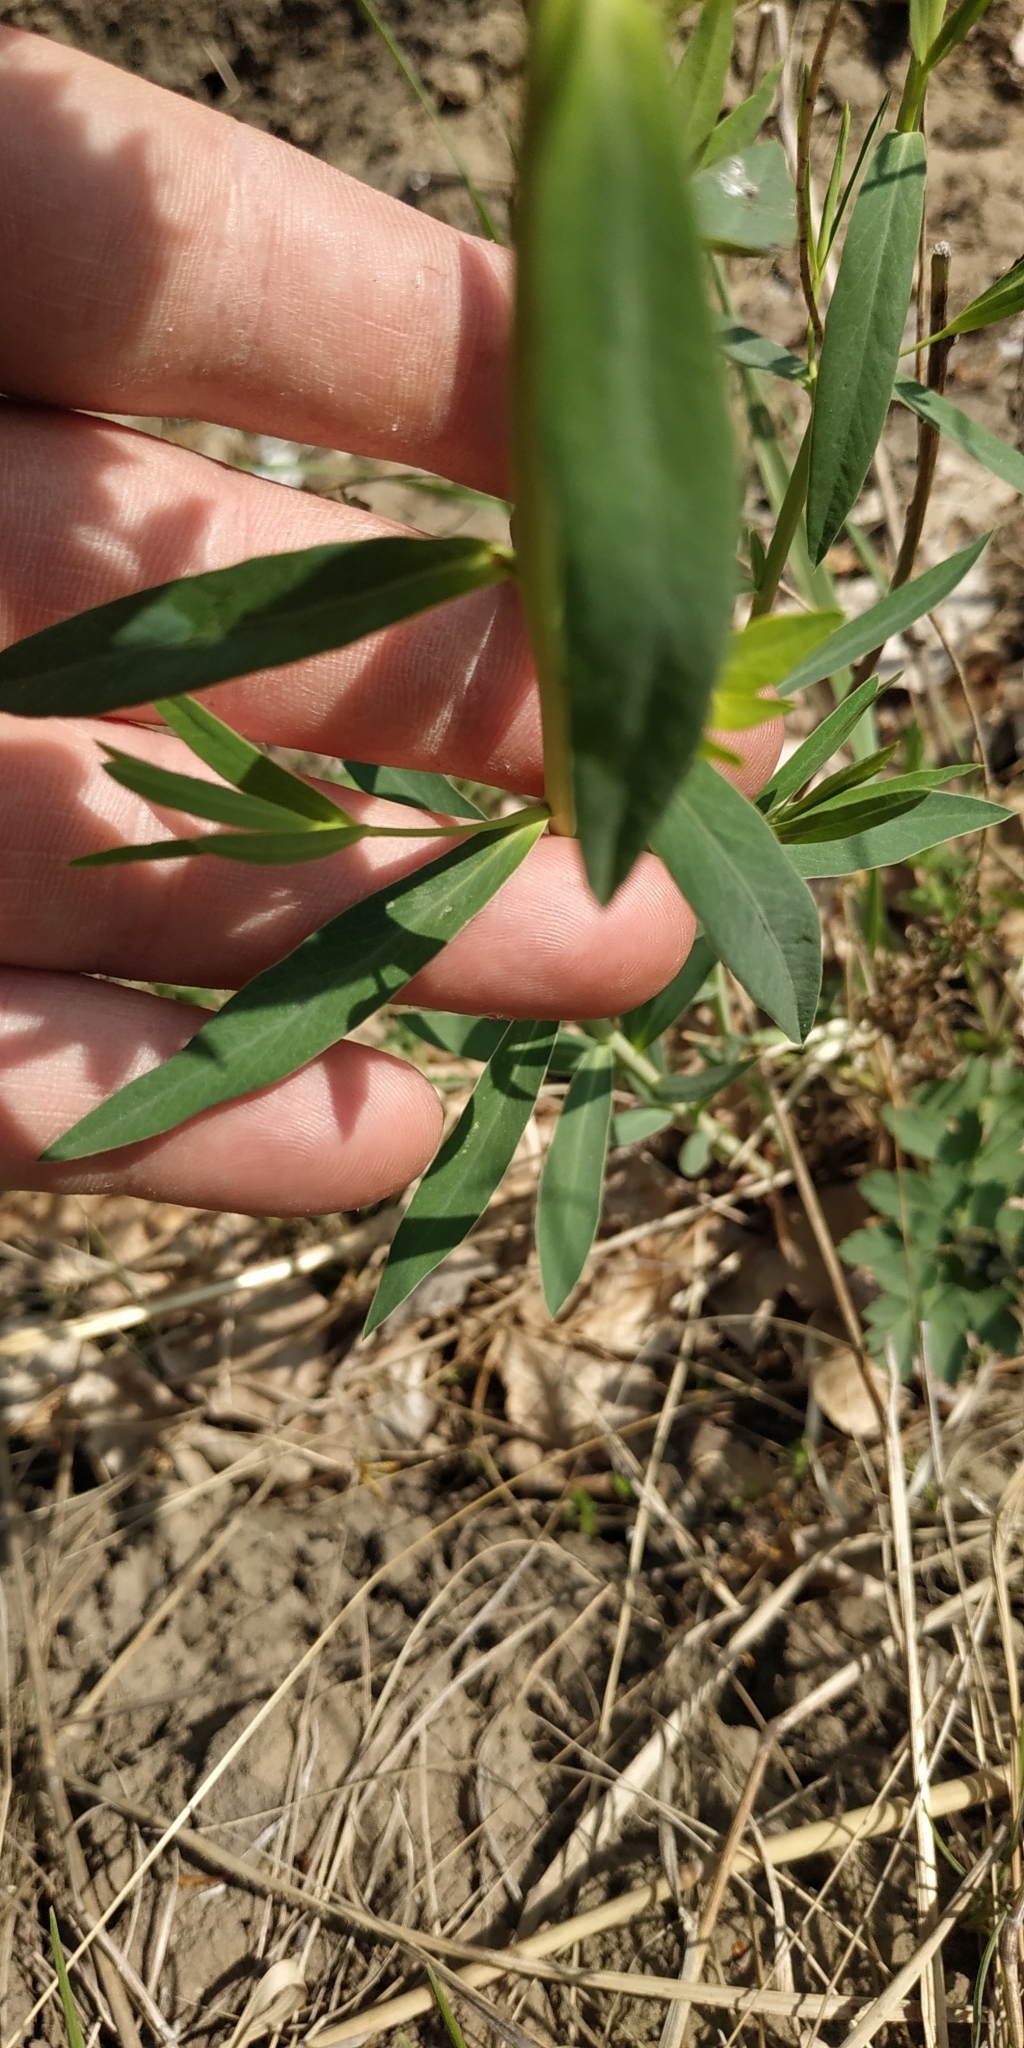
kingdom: Plantae
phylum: Tracheophyta
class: Magnoliopsida
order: Malpighiales
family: Euphorbiaceae
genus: Euphorbia
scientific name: Euphorbia virgata
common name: Leafy spurge
